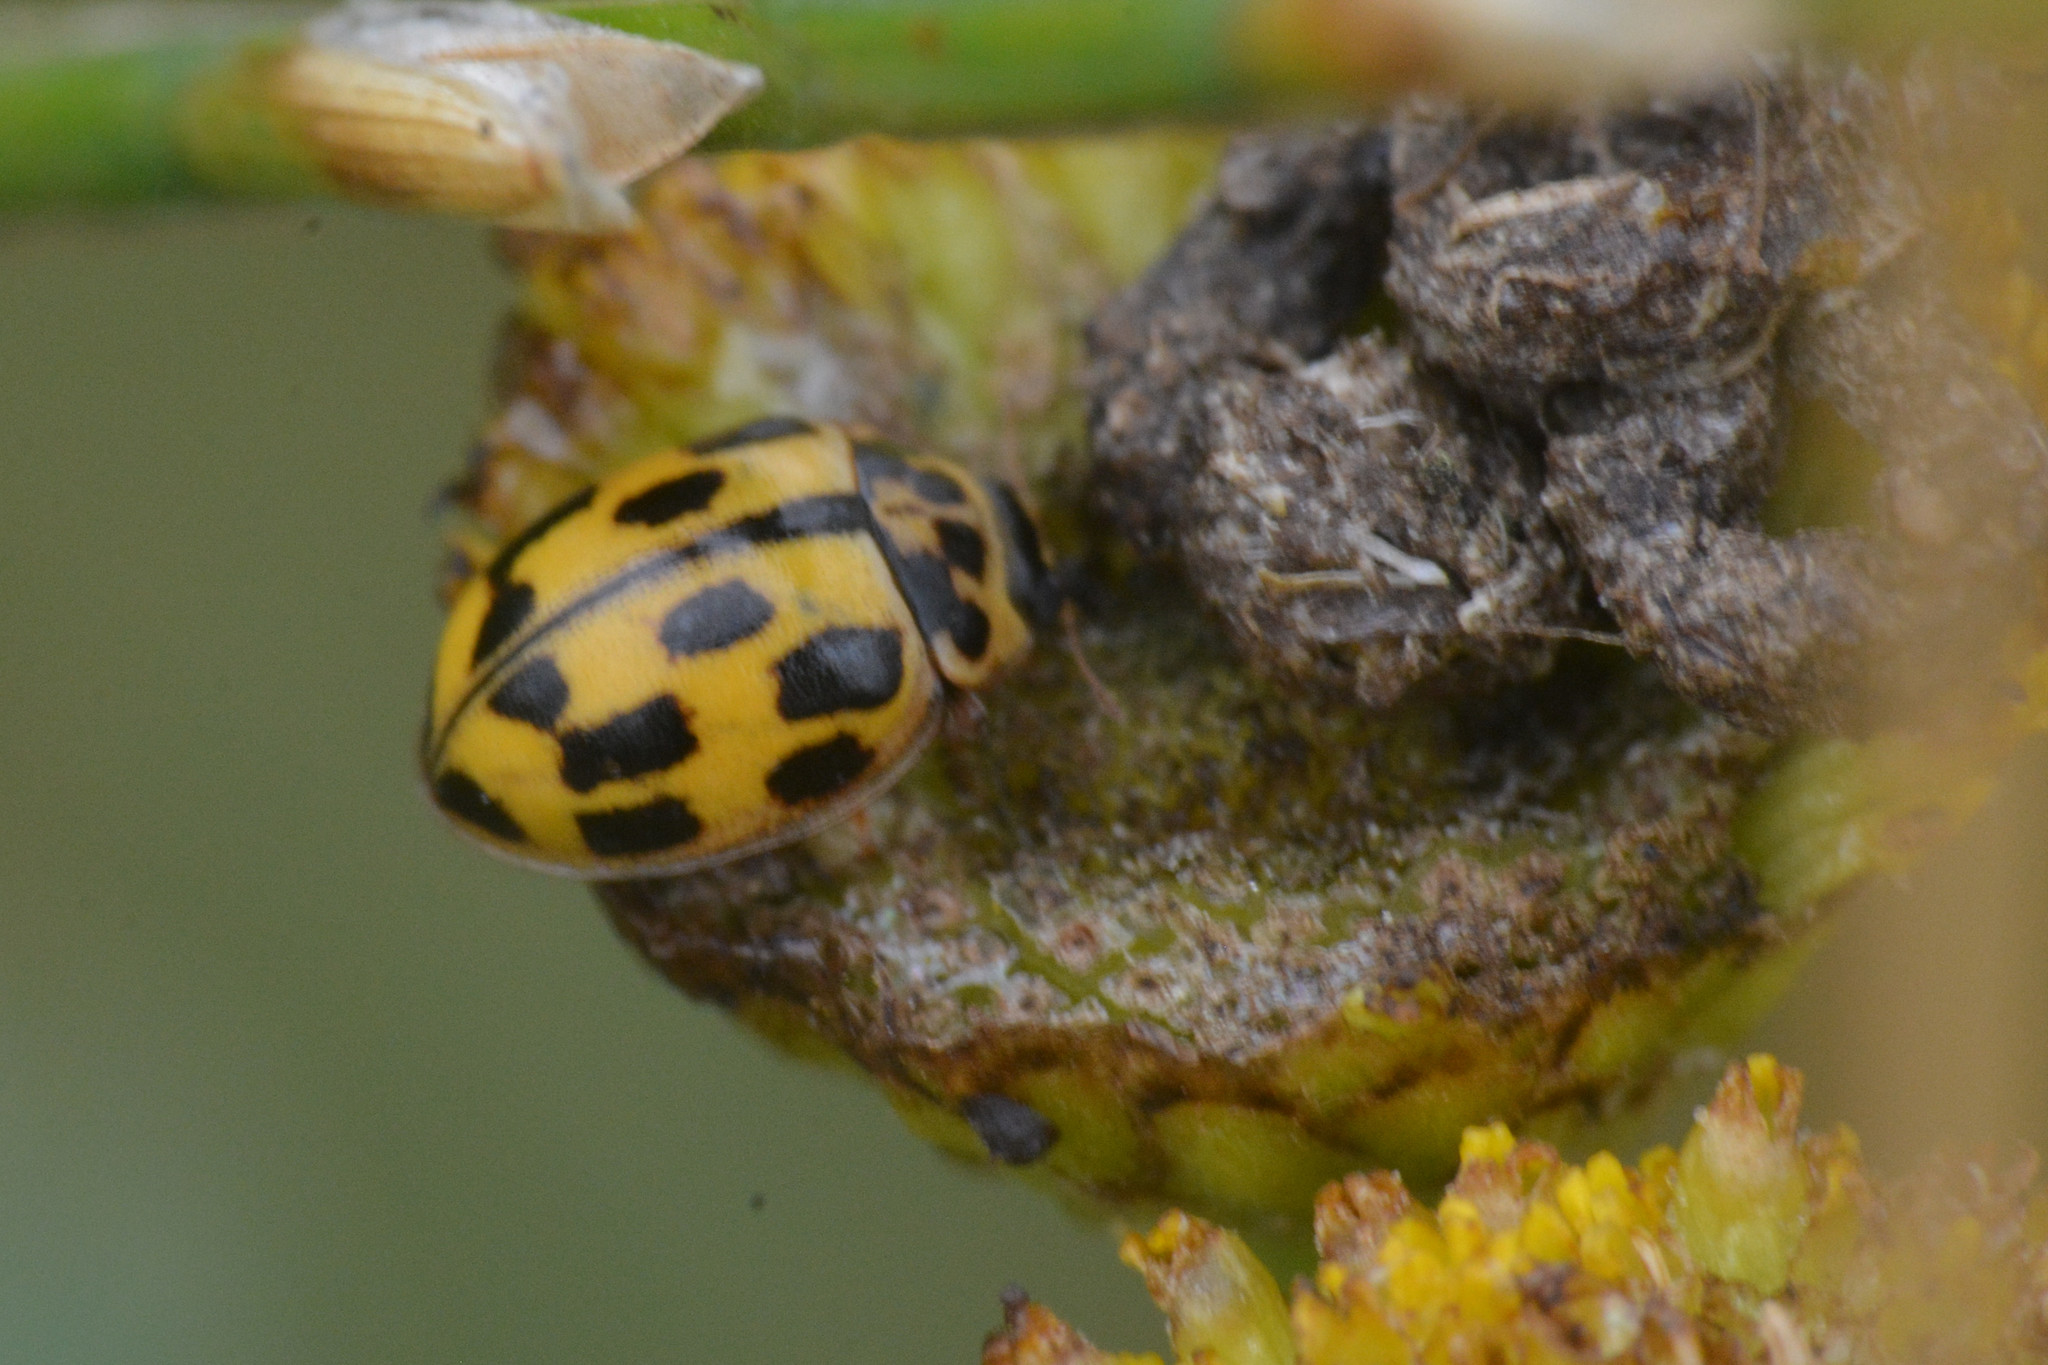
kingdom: Animalia
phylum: Arthropoda
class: Insecta
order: Coleoptera
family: Coccinellidae
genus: Propylaea
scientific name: Propylaea quatuordecimpunctata
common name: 14-spotted ladybird beetle
